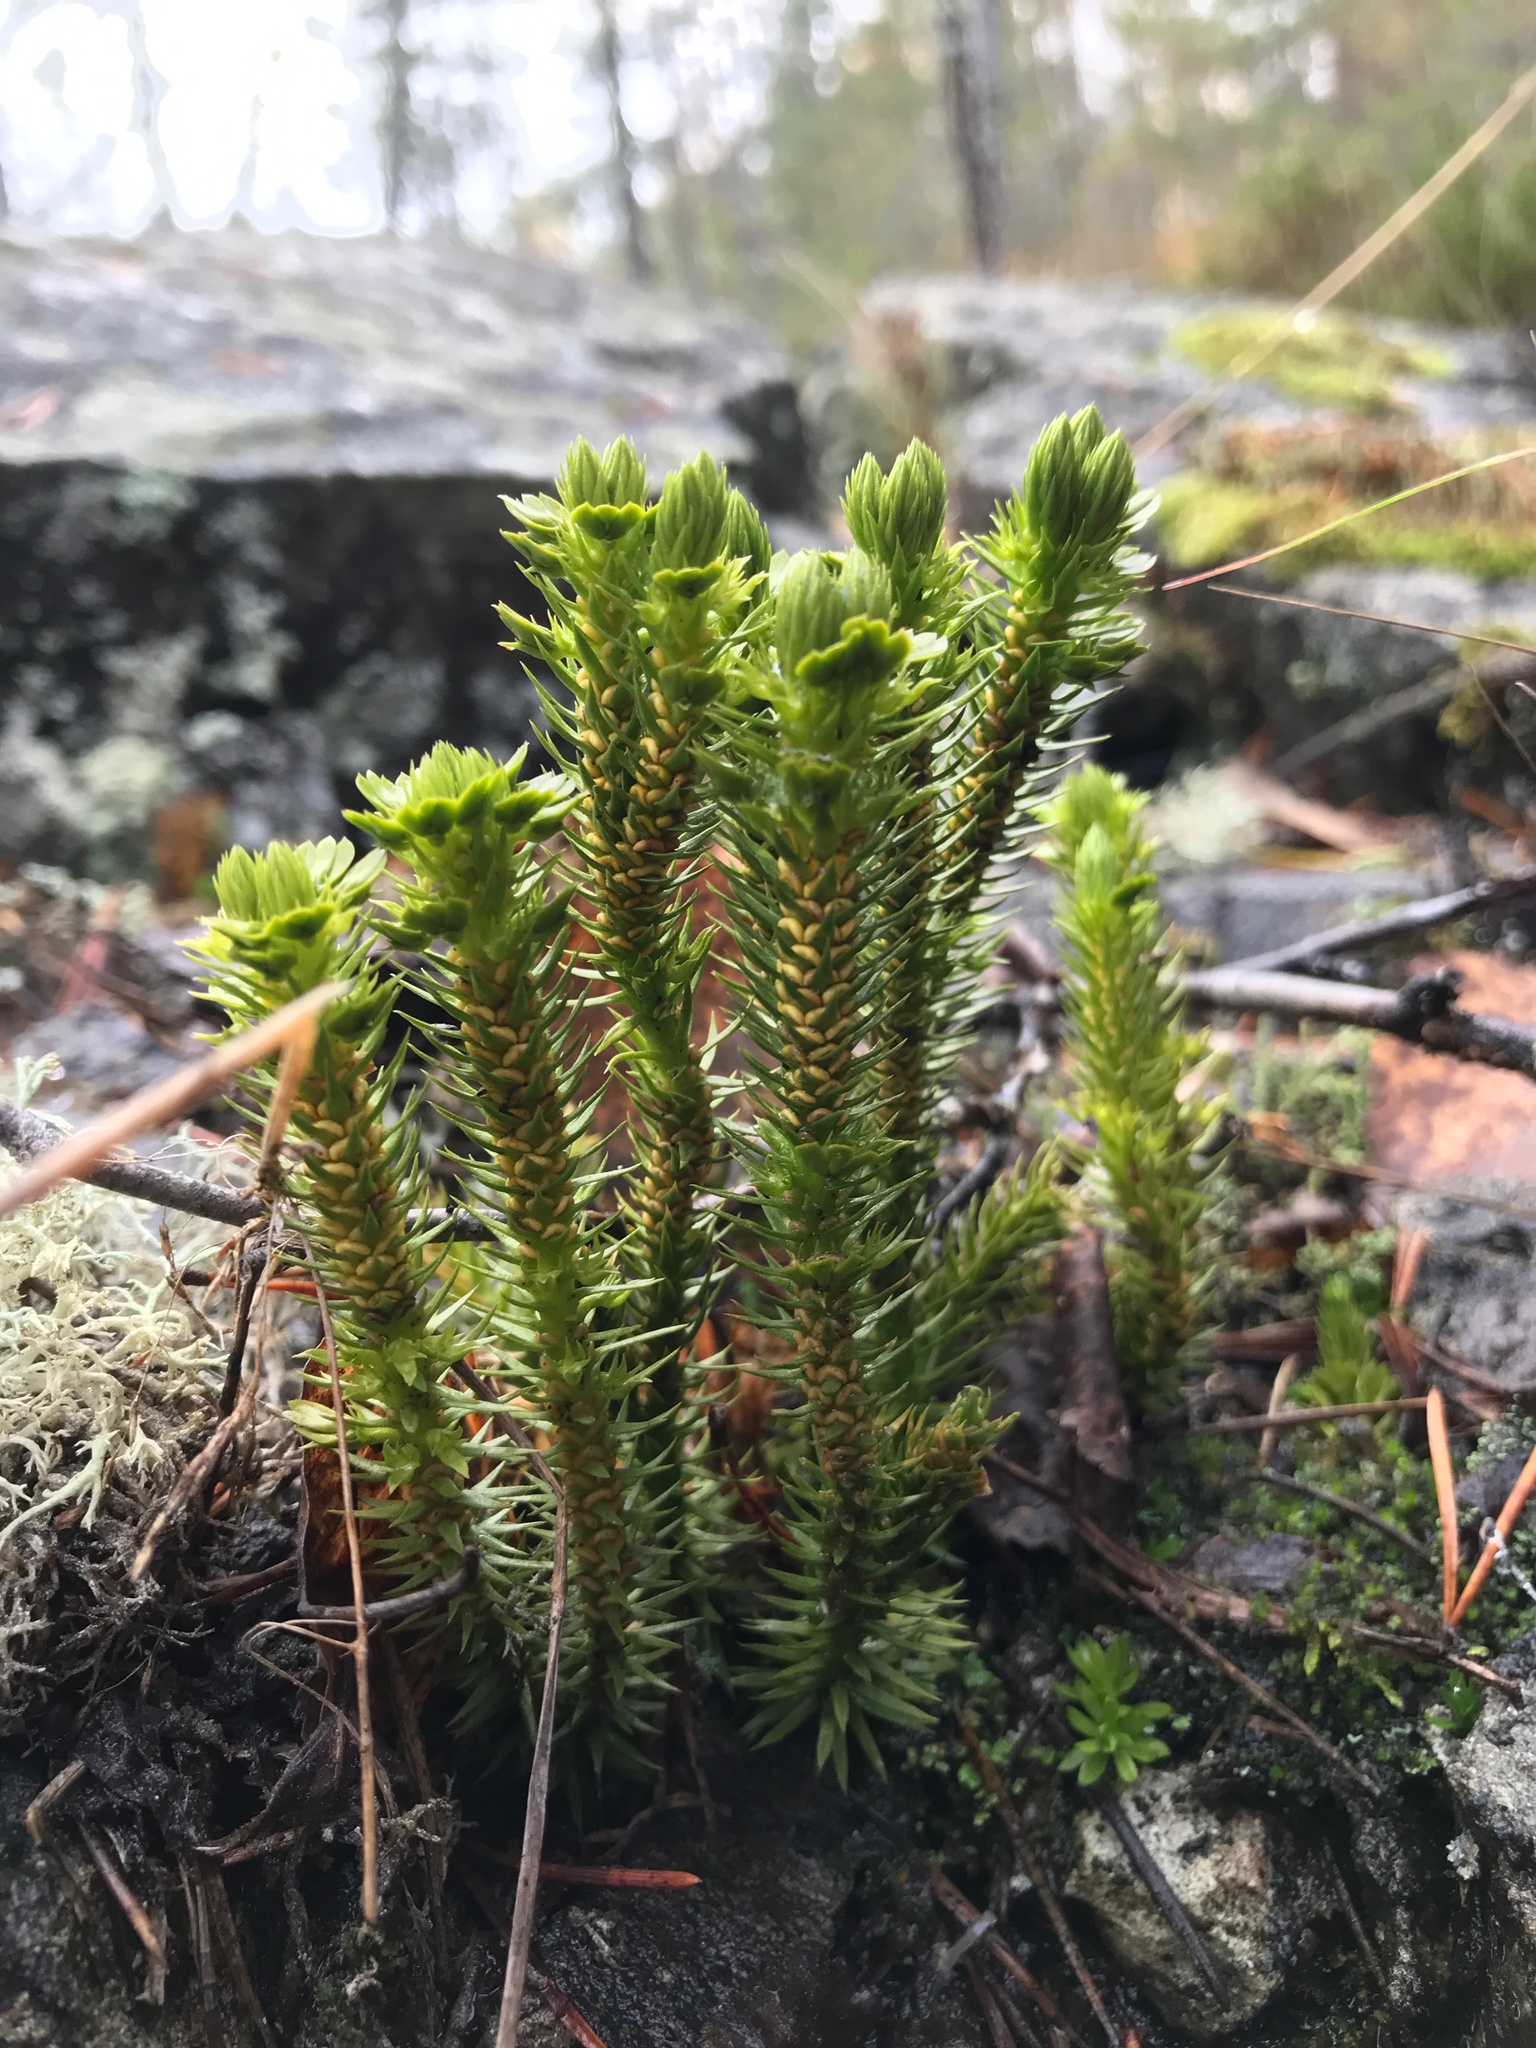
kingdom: Plantae
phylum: Tracheophyta
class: Lycopodiopsida
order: Lycopodiales
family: Lycopodiaceae
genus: Huperzia
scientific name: Huperzia selago
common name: Northern firmoss
